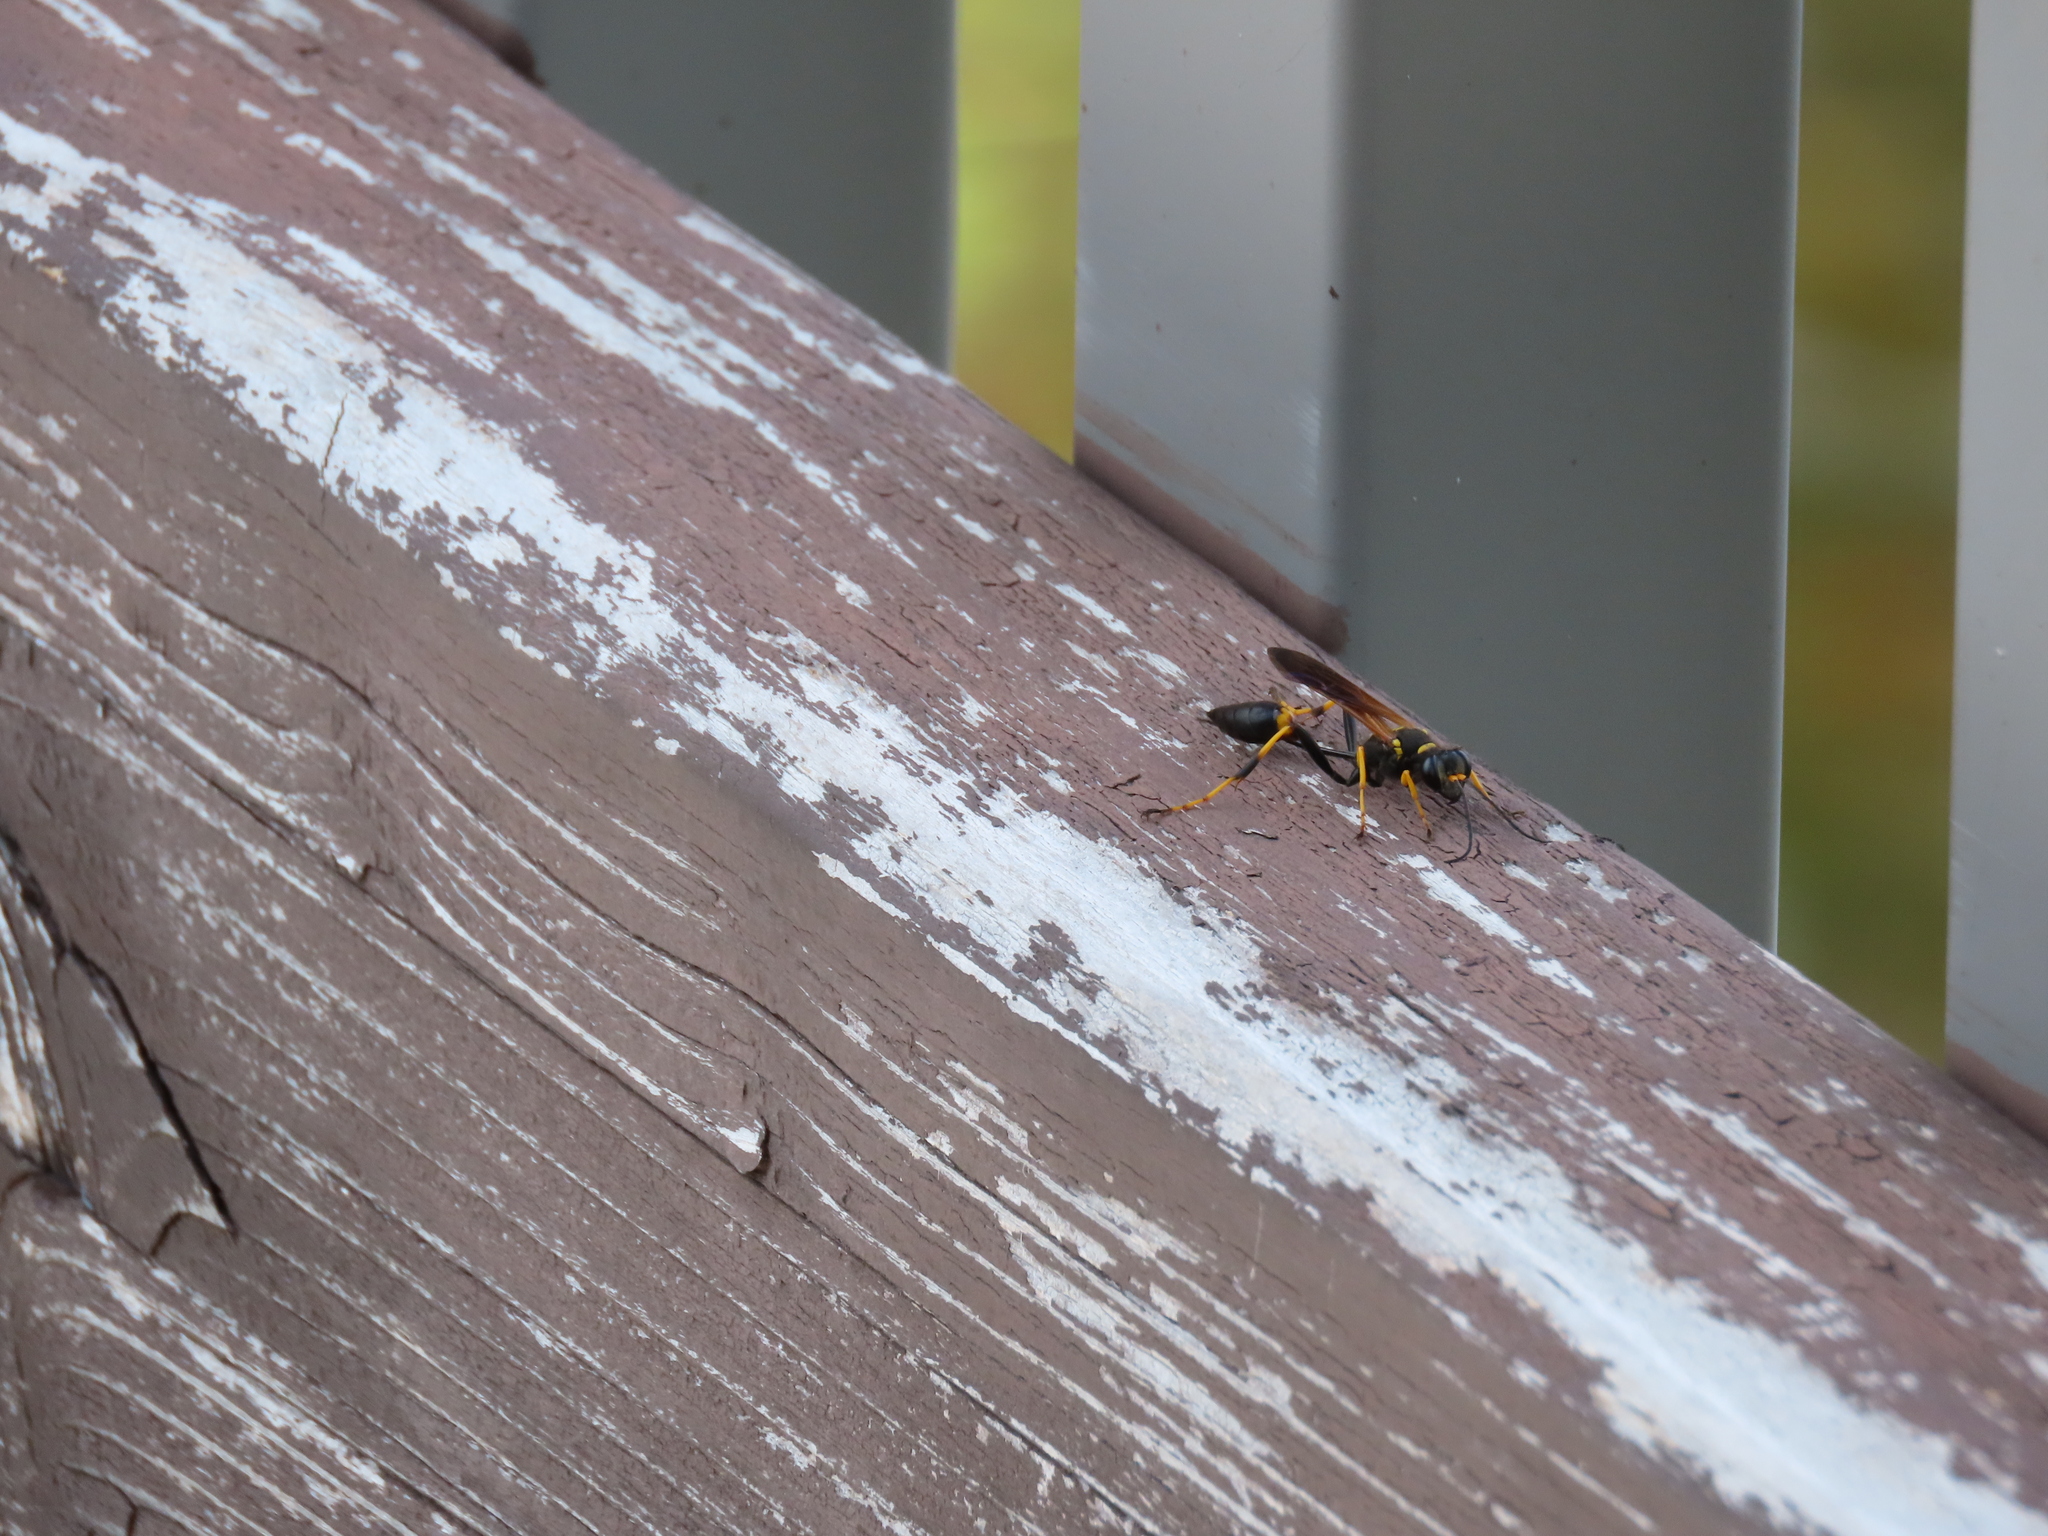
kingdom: Animalia
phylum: Arthropoda
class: Insecta
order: Hymenoptera
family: Sphecidae
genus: Sceliphron
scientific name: Sceliphron caementarium
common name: Mud dauber
